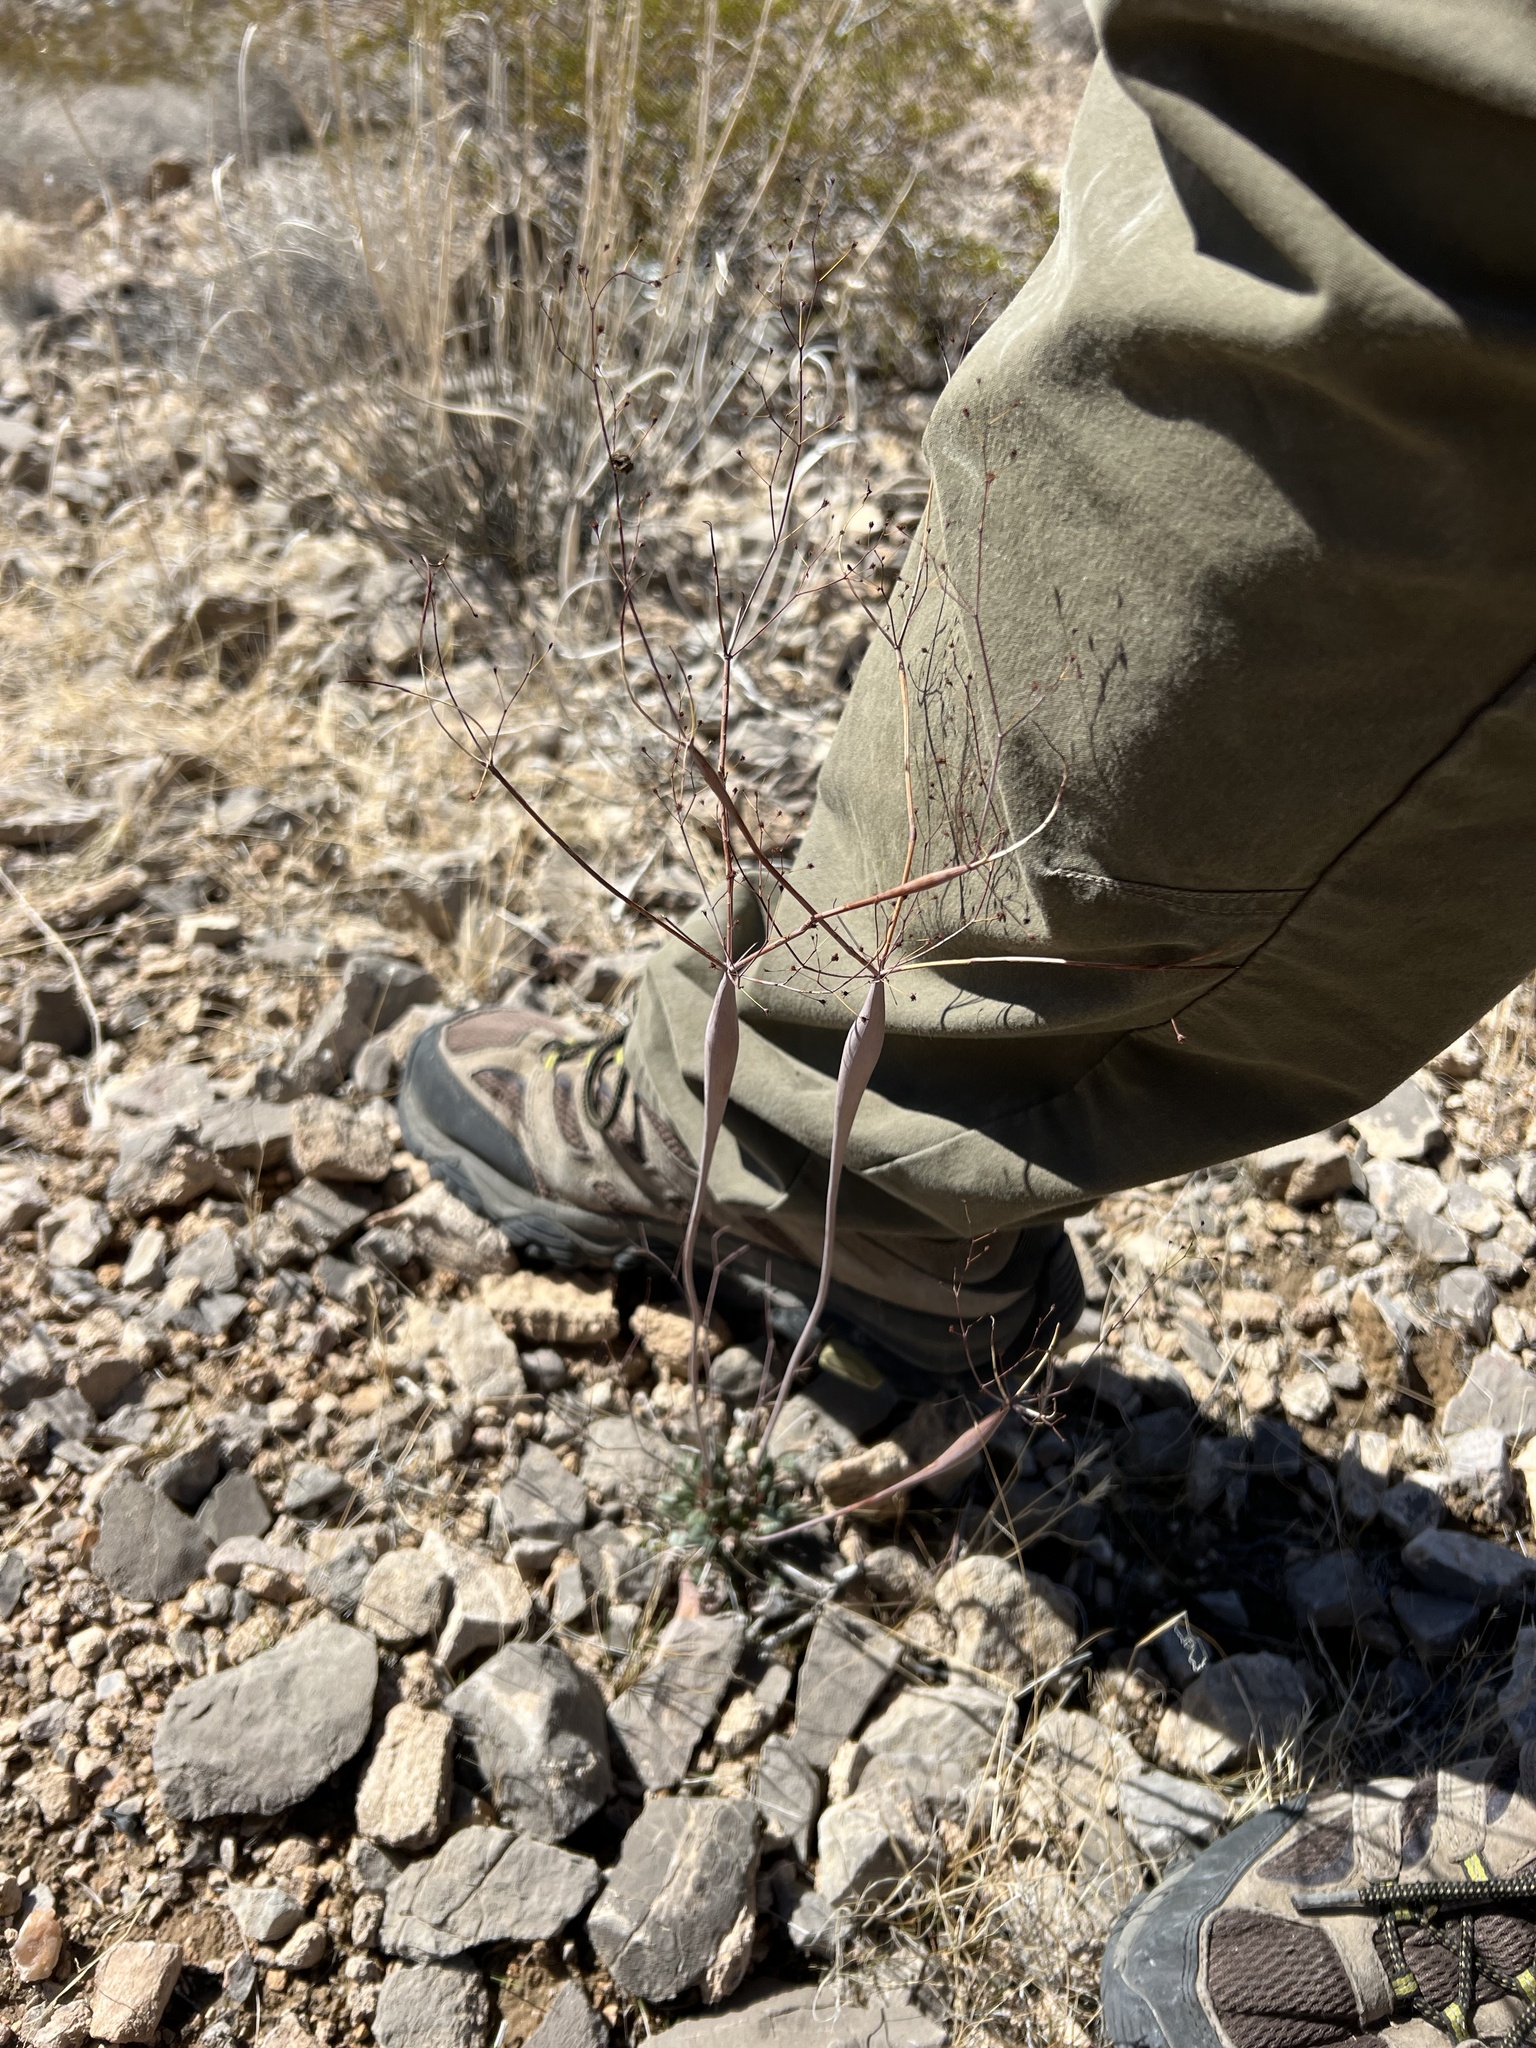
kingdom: Plantae
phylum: Tracheophyta
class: Magnoliopsida
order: Caryophyllales
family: Polygonaceae
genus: Eriogonum
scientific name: Eriogonum inflatum
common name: Desert trumpet
